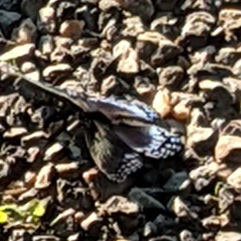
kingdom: Animalia
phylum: Arthropoda
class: Insecta
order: Lepidoptera
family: Nymphalidae
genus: Limenitis
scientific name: Limenitis astyanax
